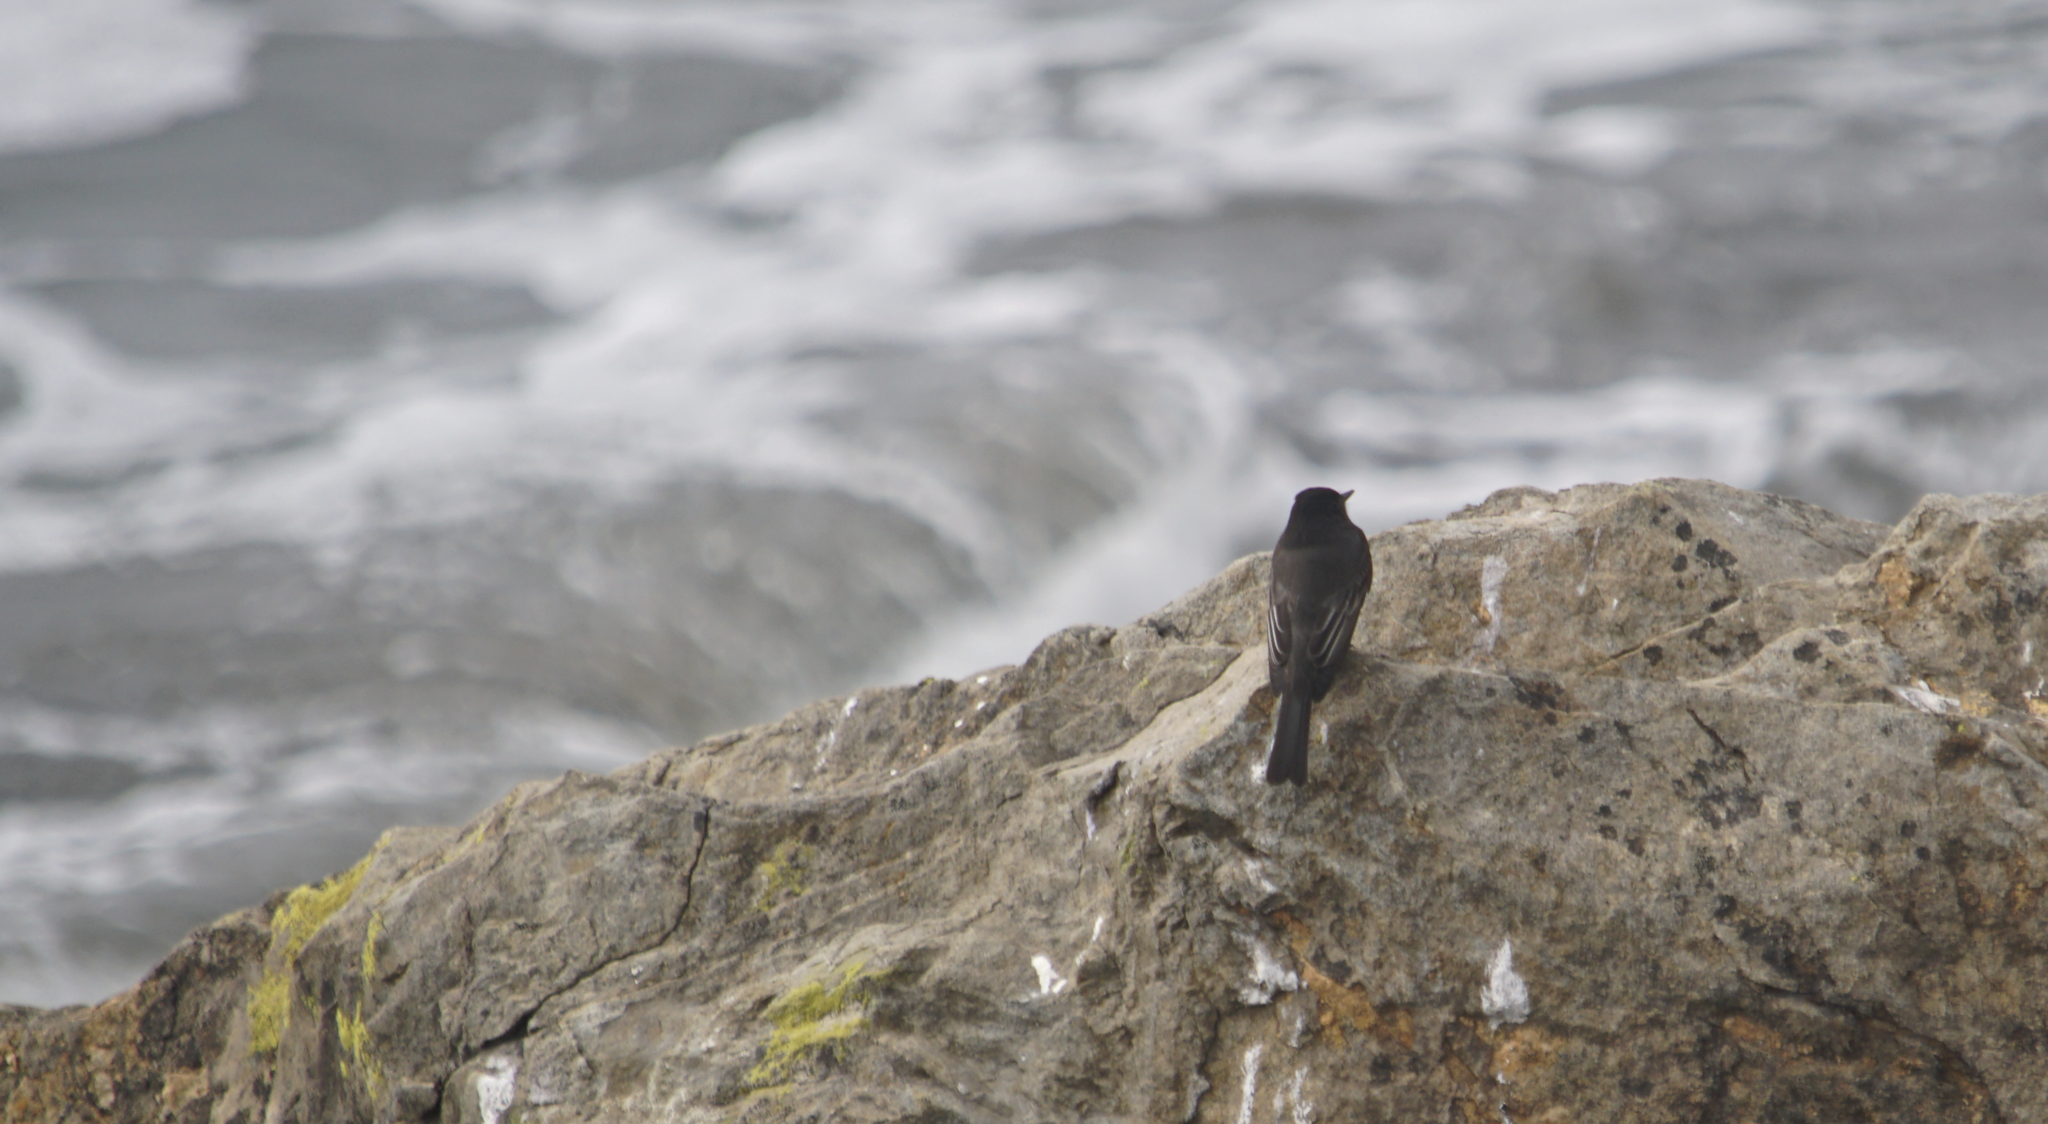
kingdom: Animalia
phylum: Chordata
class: Aves
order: Passeriformes
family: Tyrannidae
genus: Sayornis
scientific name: Sayornis nigricans
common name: Black phoebe
